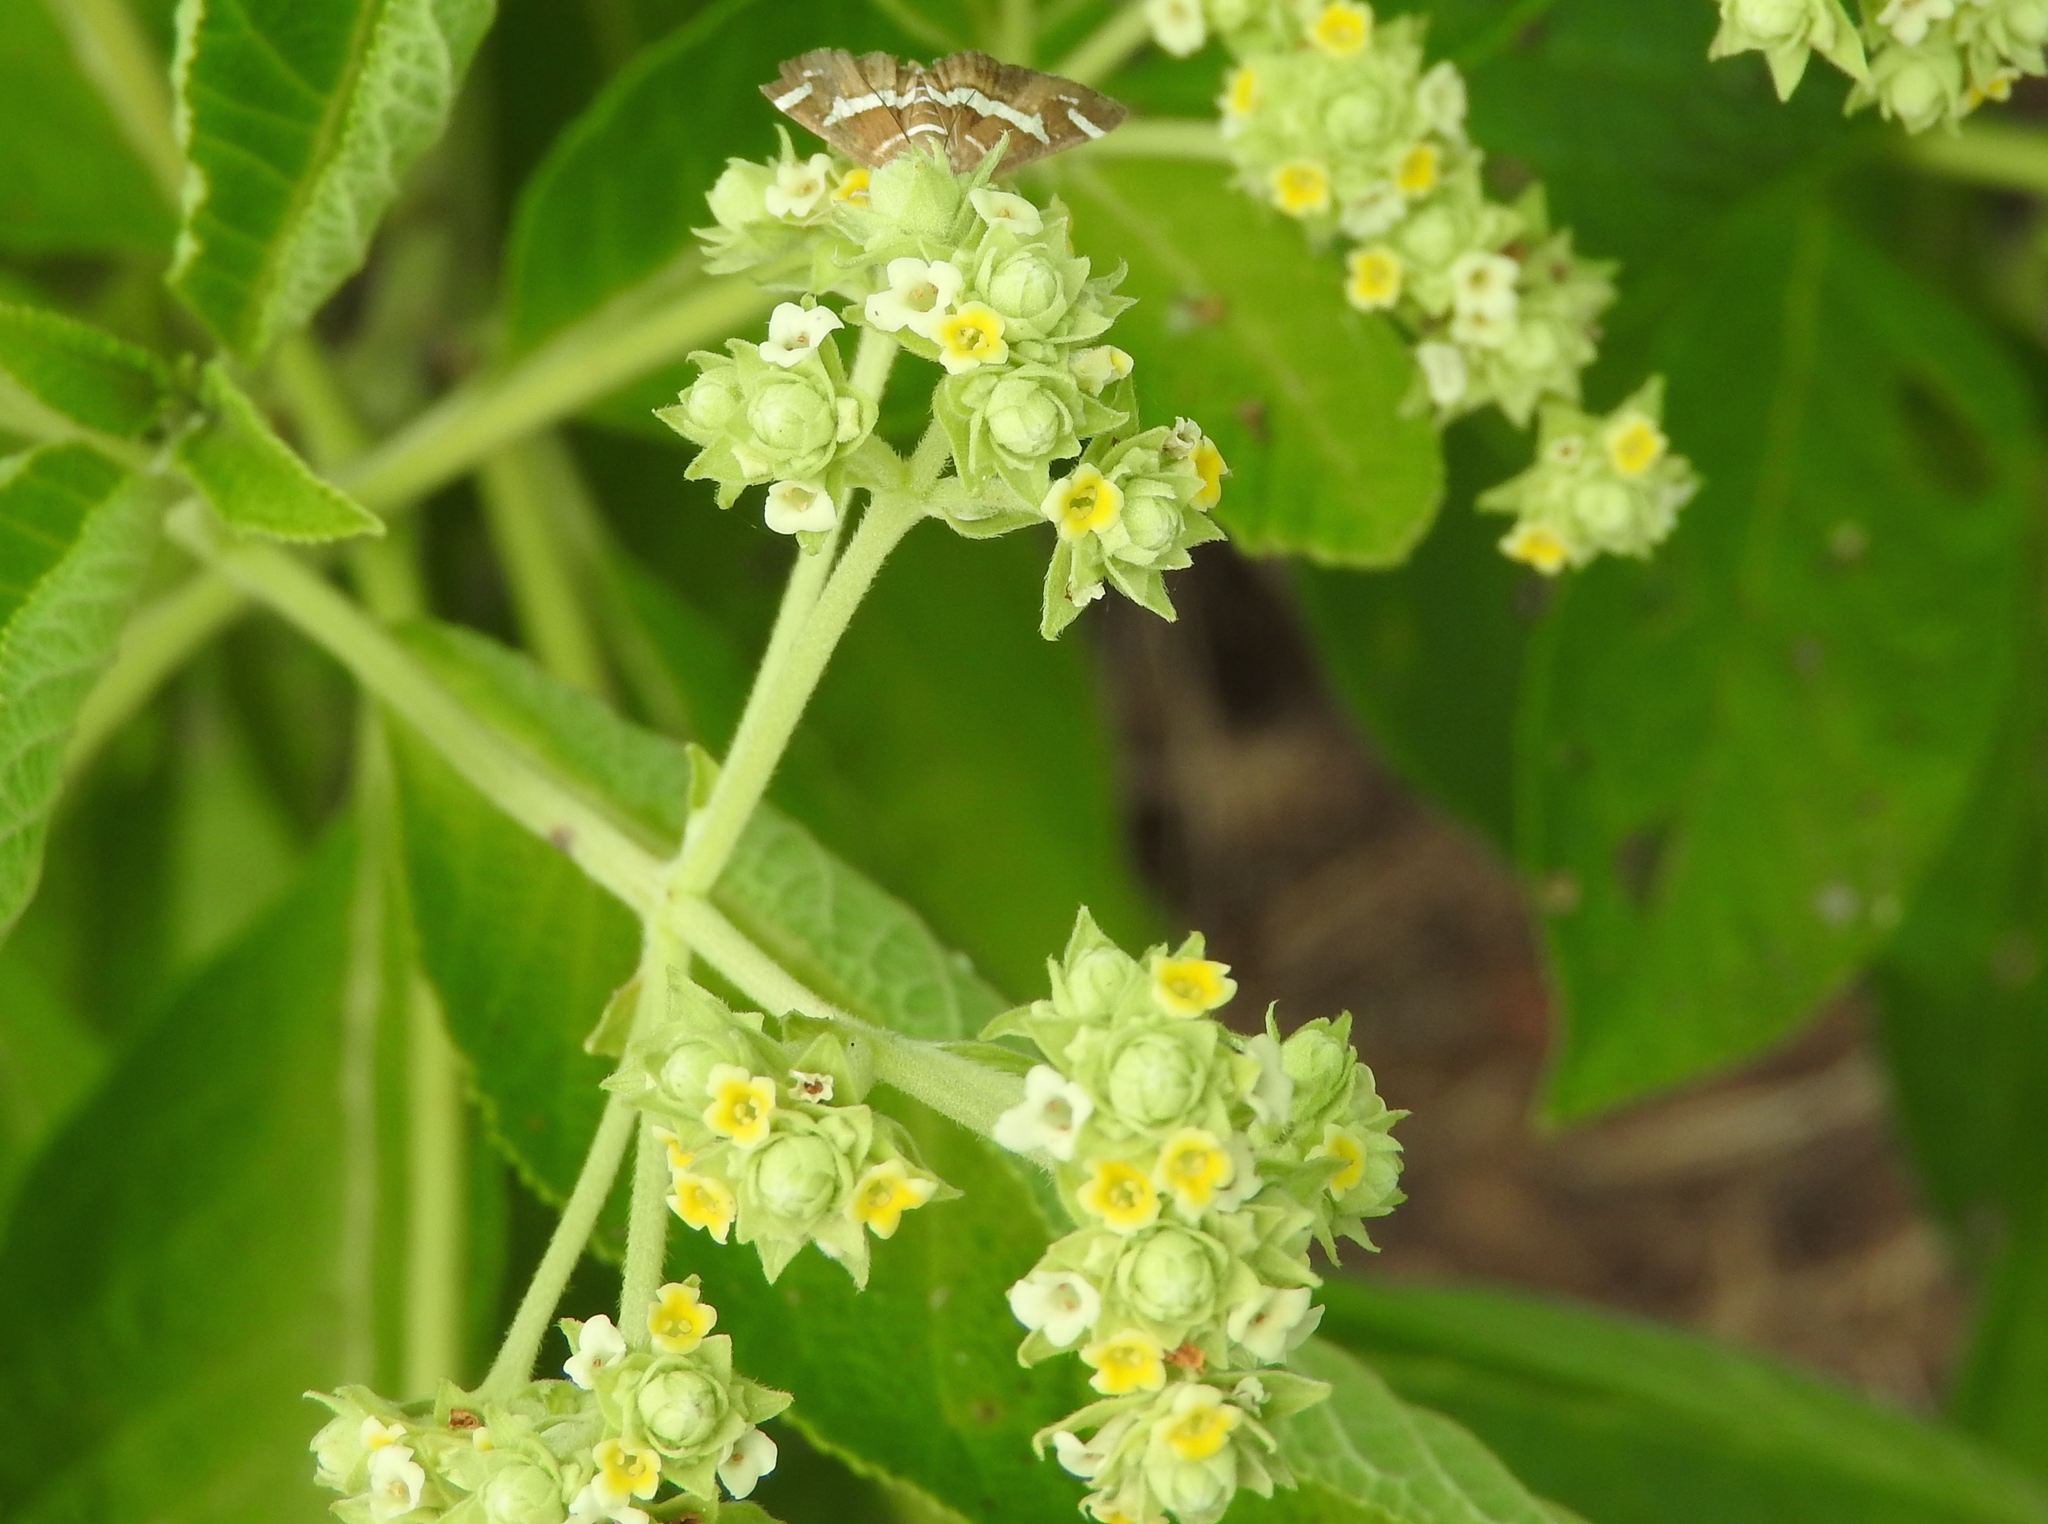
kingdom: Plantae
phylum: Tracheophyta
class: Magnoliopsida
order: Lamiales
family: Verbenaceae
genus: Lippia
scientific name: Lippia umbellata
